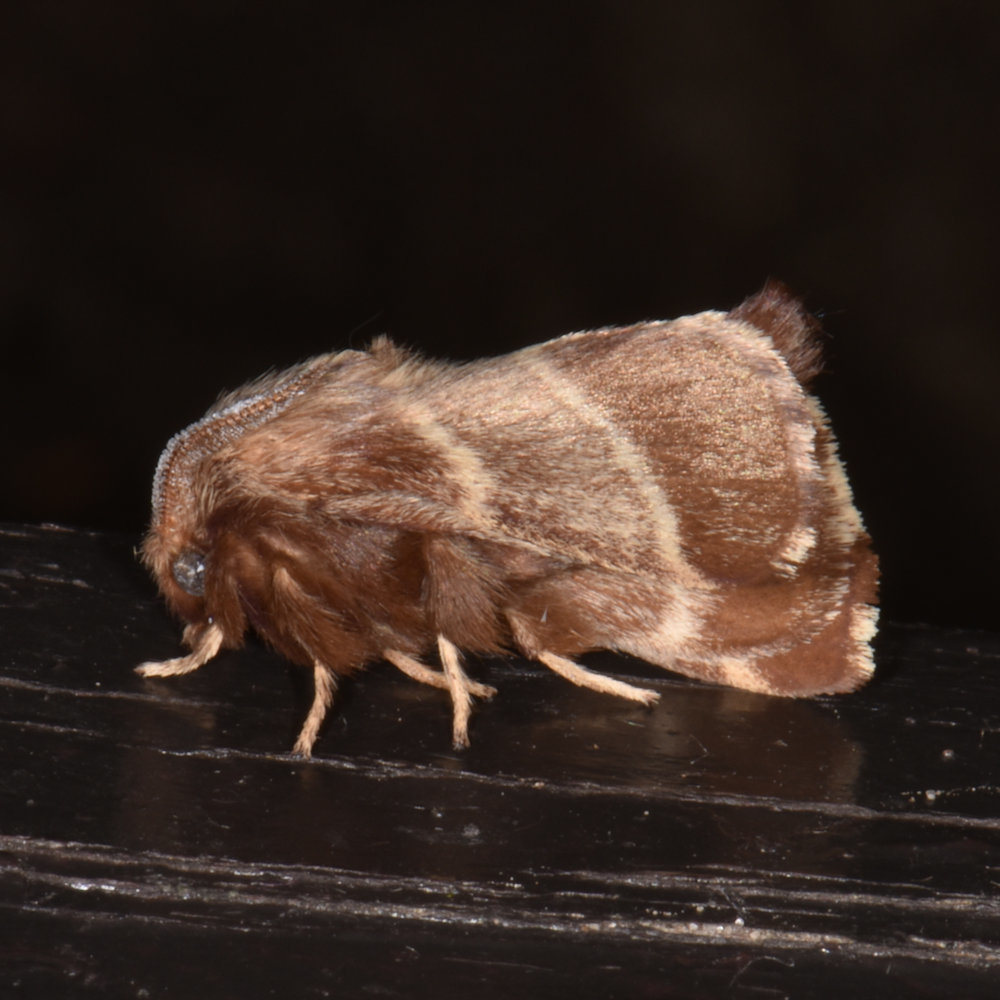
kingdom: Animalia
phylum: Arthropoda
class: Insecta
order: Lepidoptera
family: Lasiocampidae
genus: Malacosoma
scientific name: Malacosoma americana
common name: Eastern tent caterpillar moth
